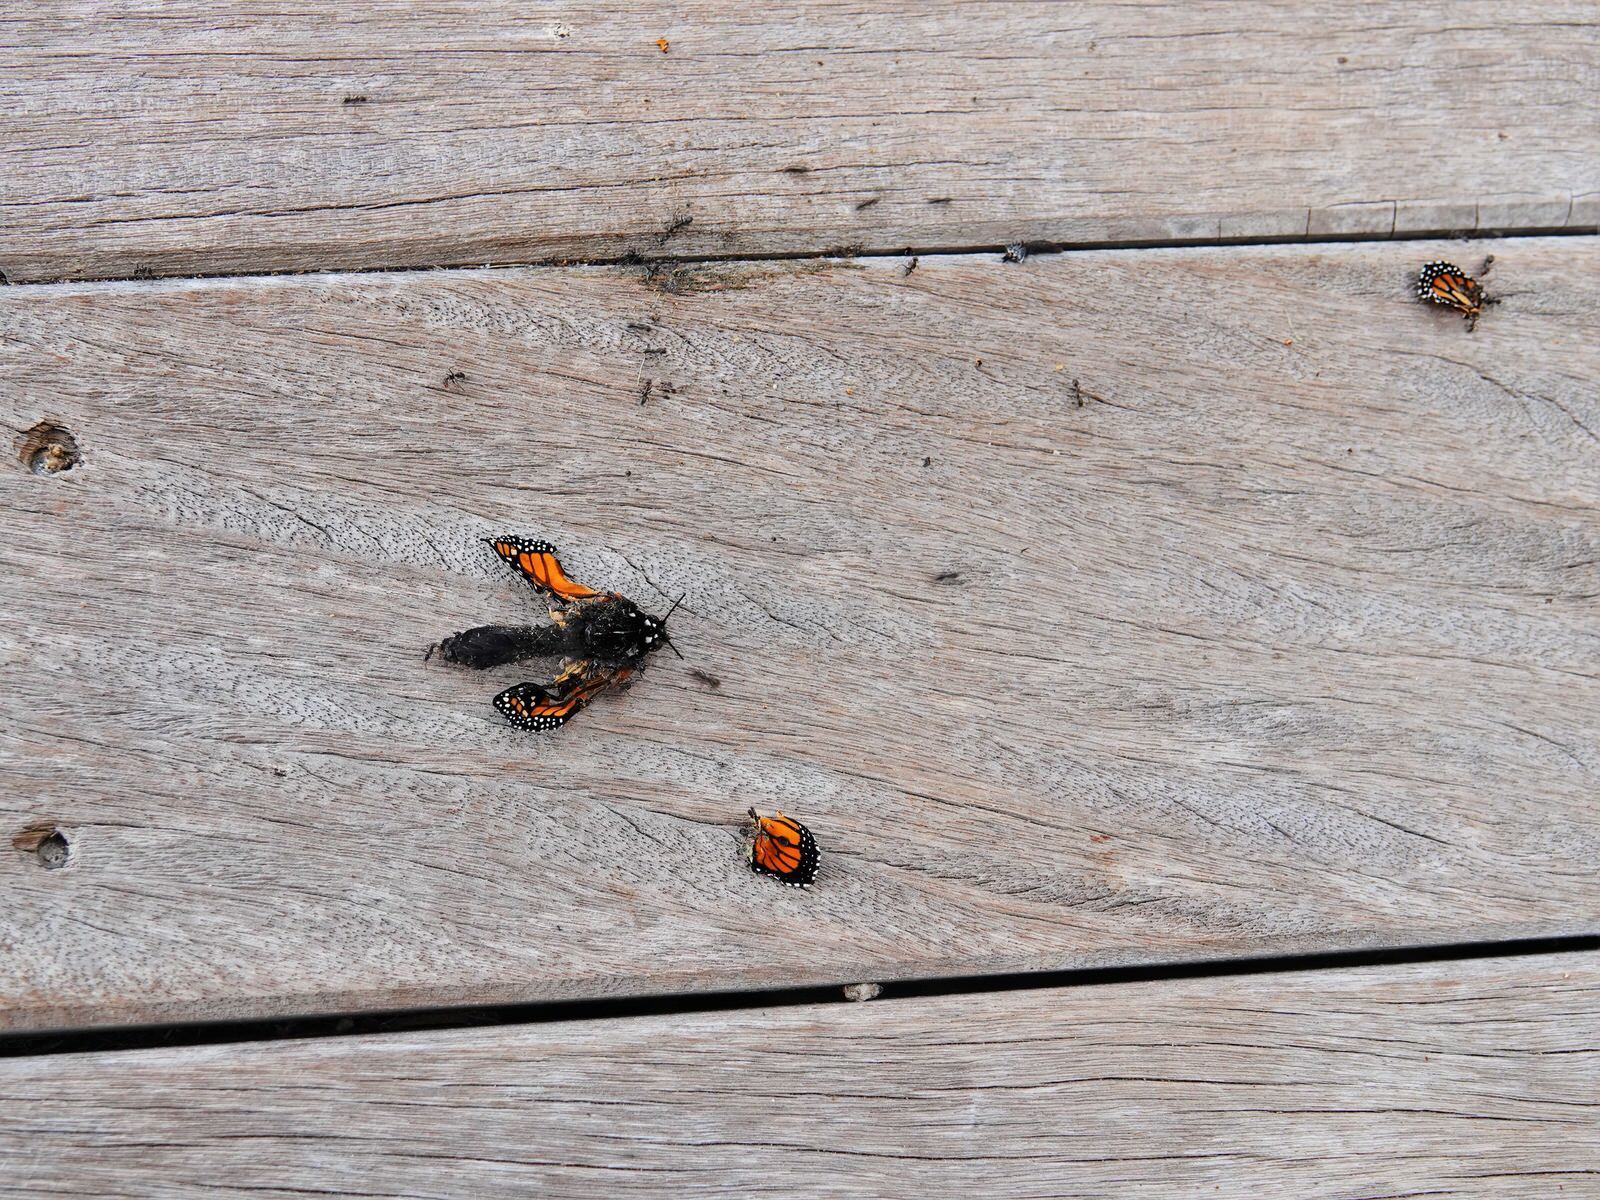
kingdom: Animalia
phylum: Arthropoda
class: Insecta
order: Lepidoptera
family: Nymphalidae
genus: Danaus
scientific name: Danaus plexippus
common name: Monarch
